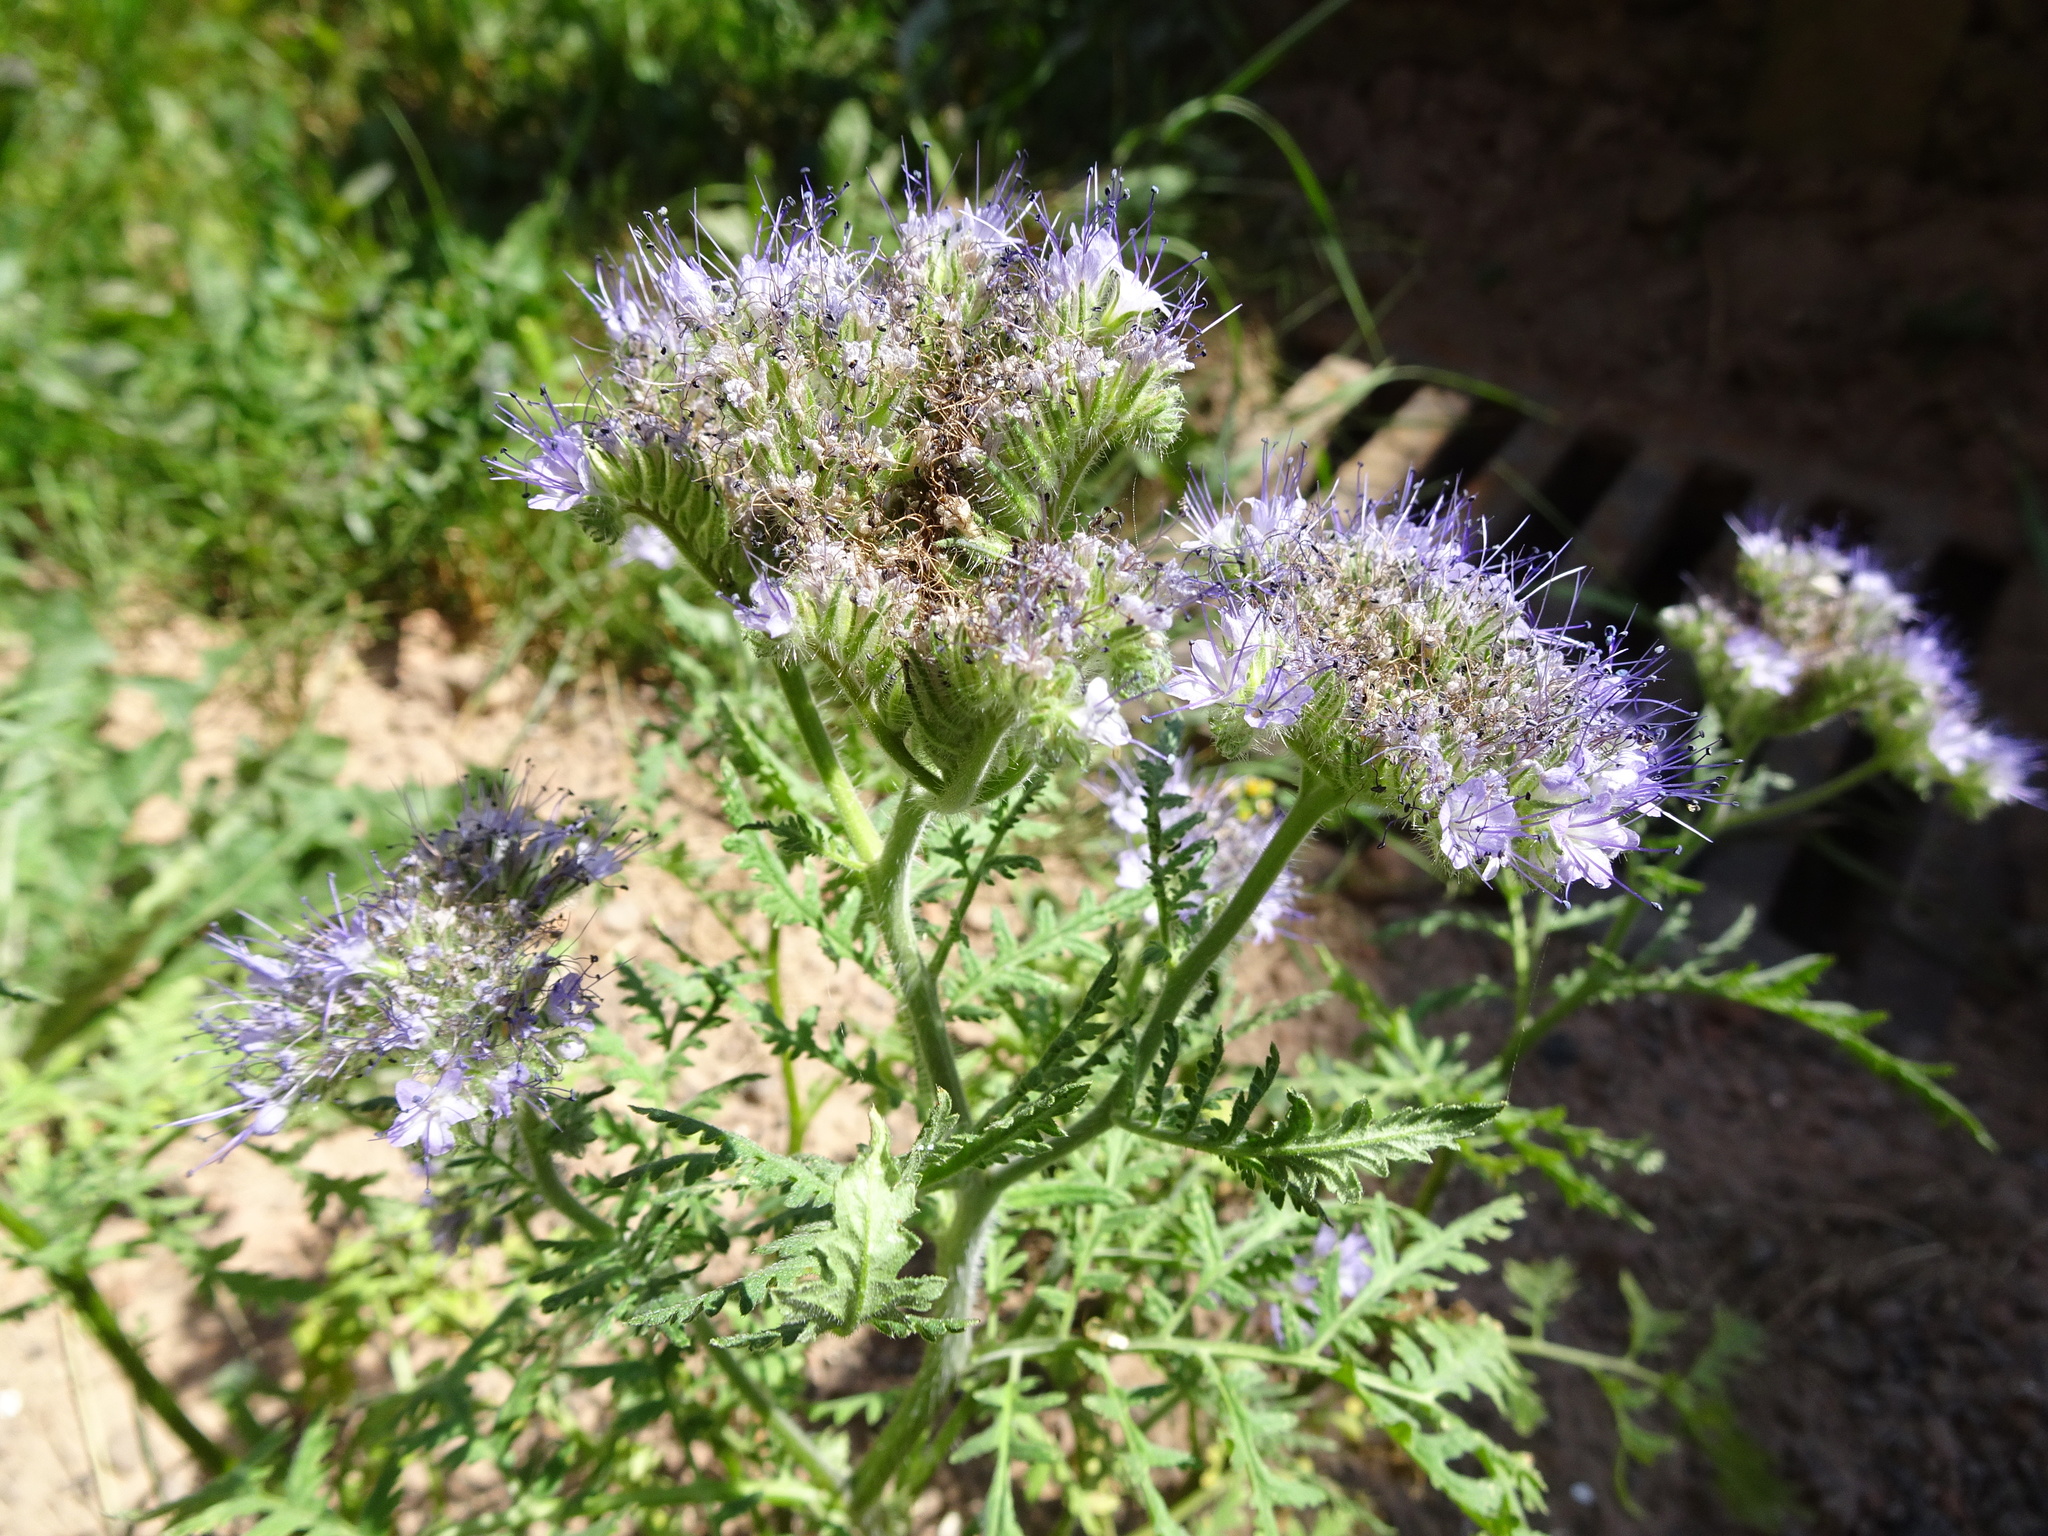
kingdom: Plantae
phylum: Tracheophyta
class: Magnoliopsida
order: Boraginales
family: Hydrophyllaceae
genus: Phacelia
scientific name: Phacelia tanacetifolia
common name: Phacelia
